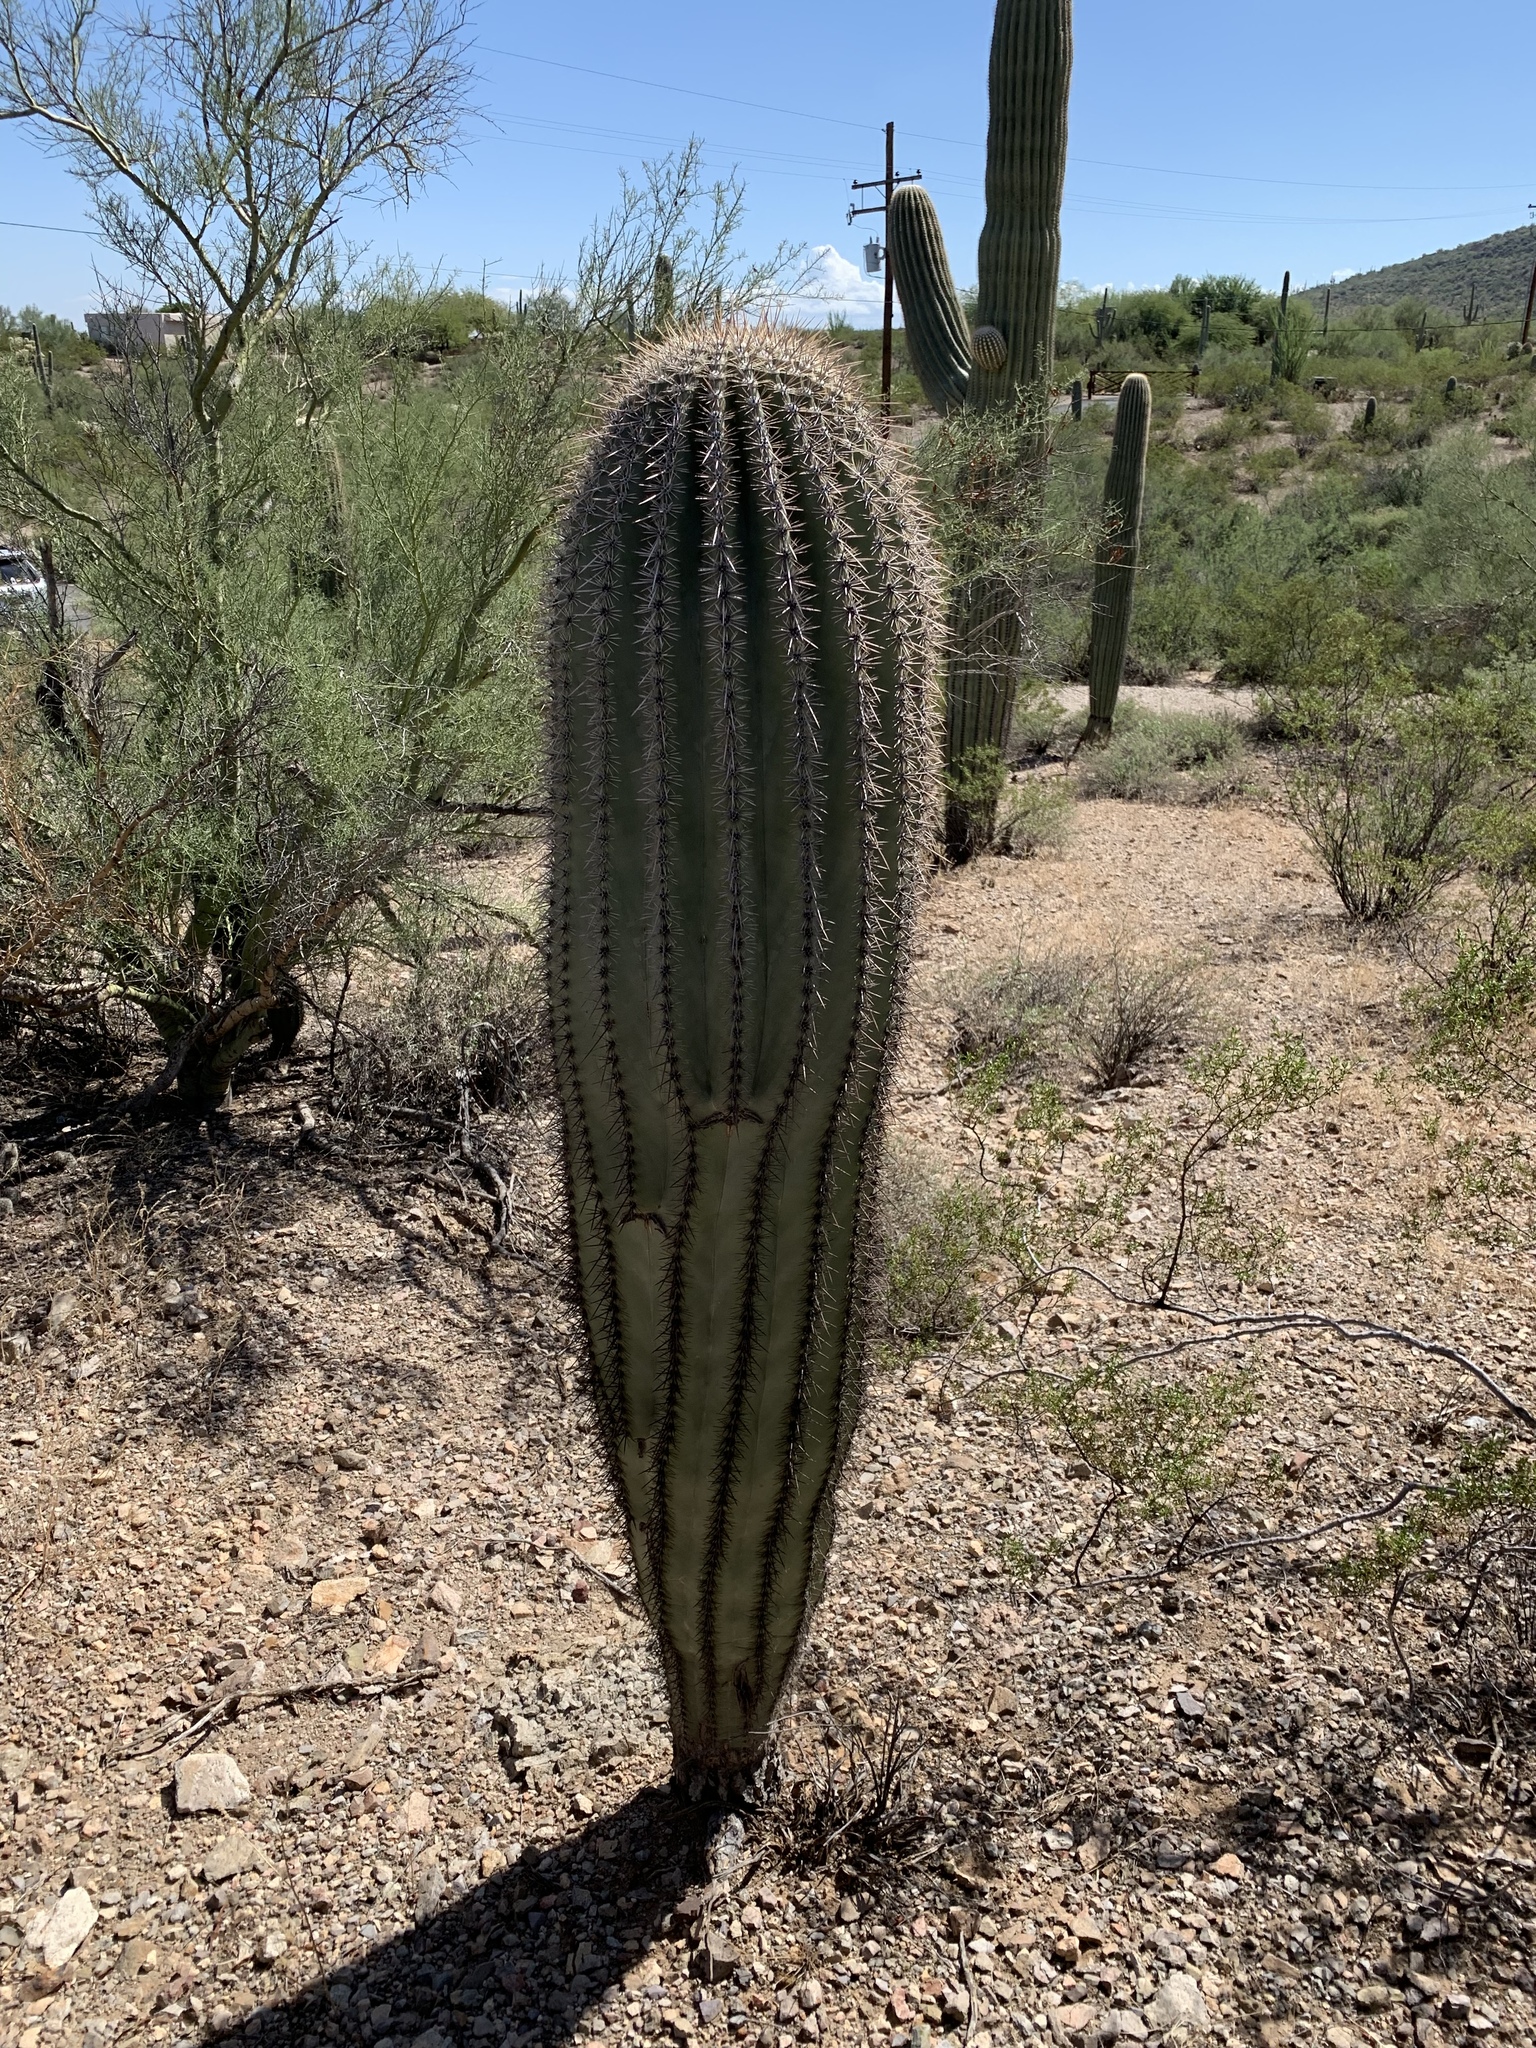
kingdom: Plantae
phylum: Tracheophyta
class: Magnoliopsida
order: Caryophyllales
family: Cactaceae
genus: Carnegiea
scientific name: Carnegiea gigantea
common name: Saguaro
